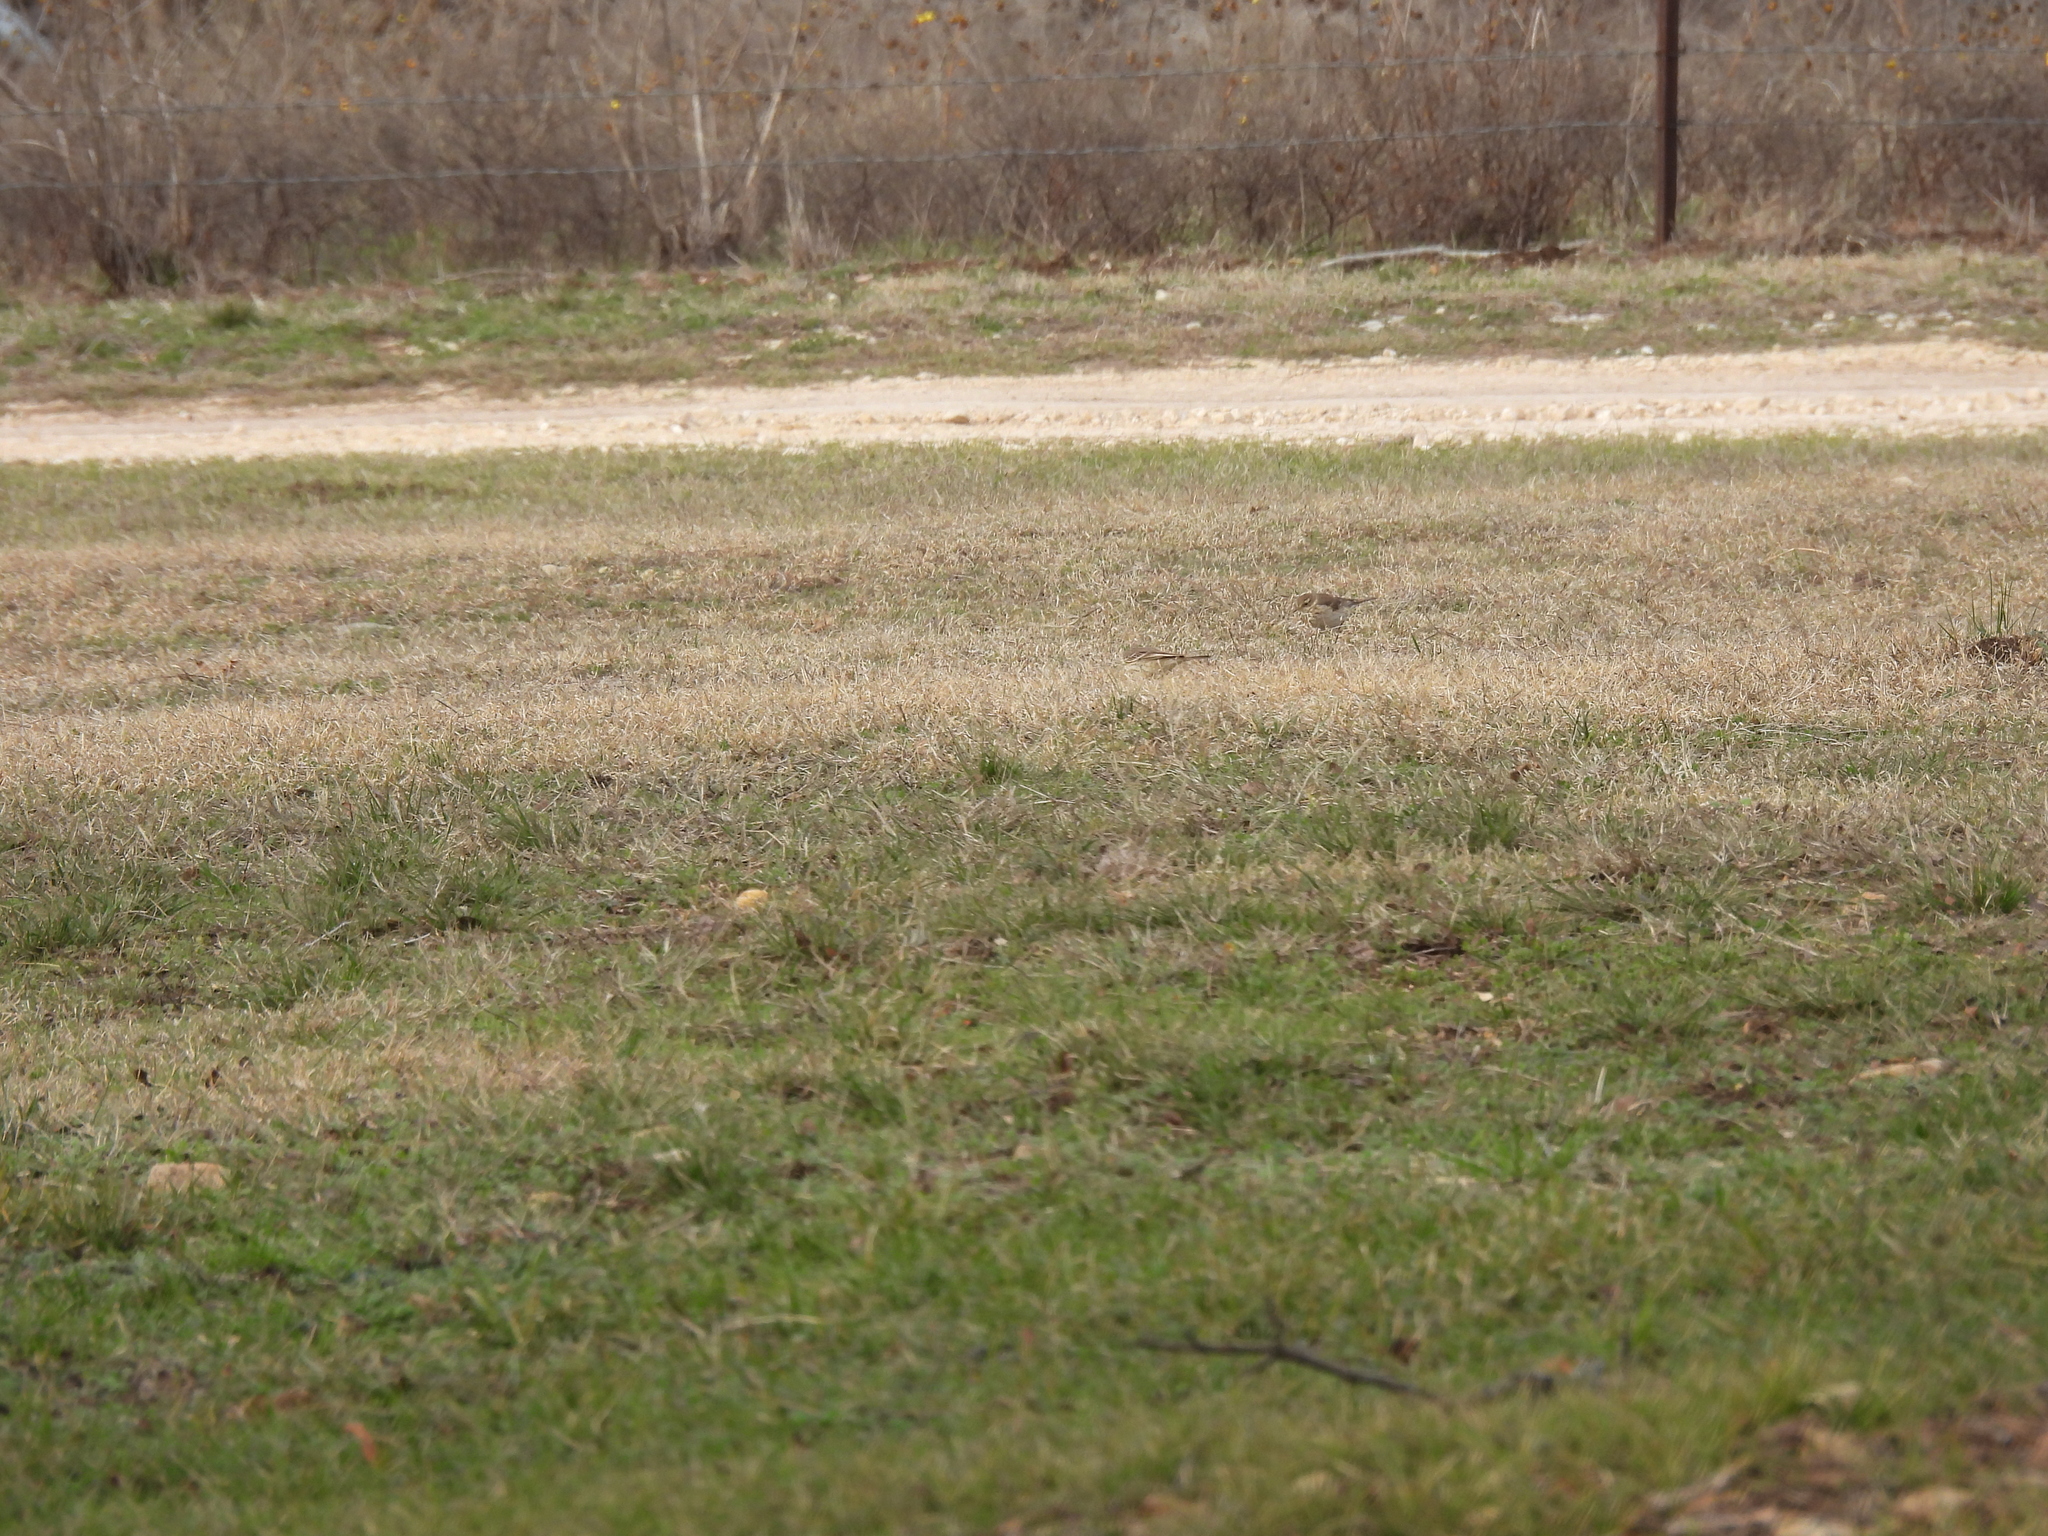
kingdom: Animalia
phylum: Chordata
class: Aves
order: Passeriformes
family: Motacillidae
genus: Anthus
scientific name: Anthus rubescens
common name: Buff-bellied pipit
